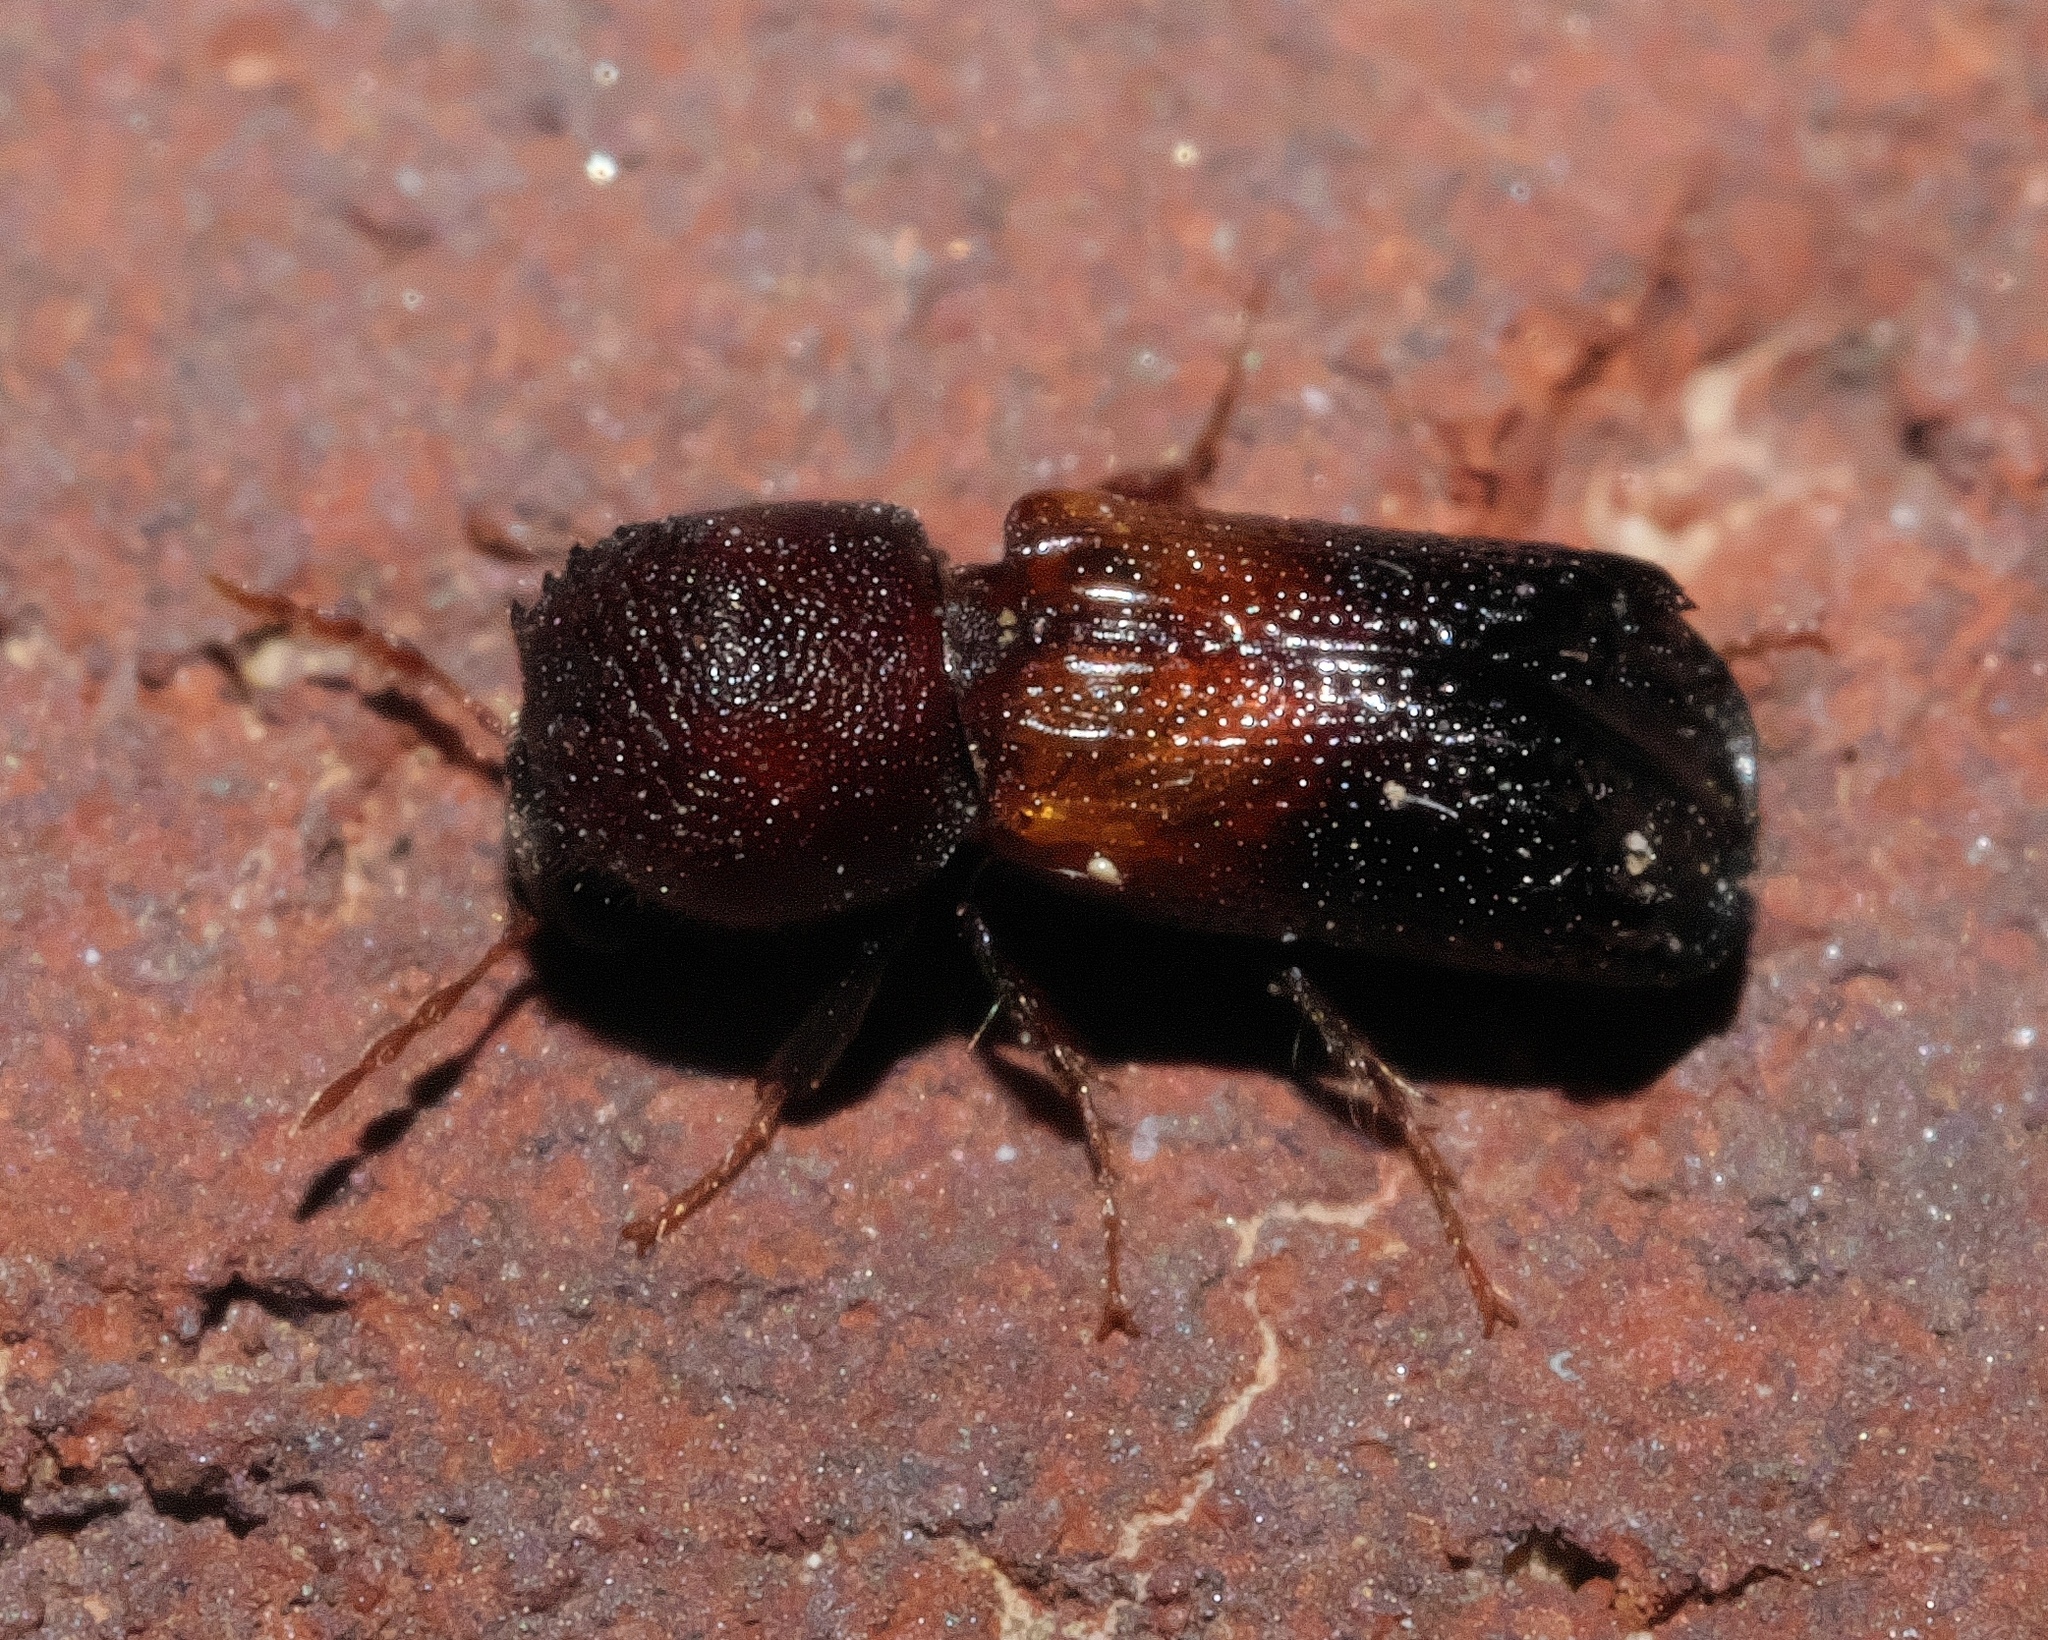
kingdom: Animalia
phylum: Arthropoda
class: Insecta
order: Coleoptera
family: Bostrichidae
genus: Xylobiops
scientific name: Xylobiops basilaris
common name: Red-shouldered bostrichid
